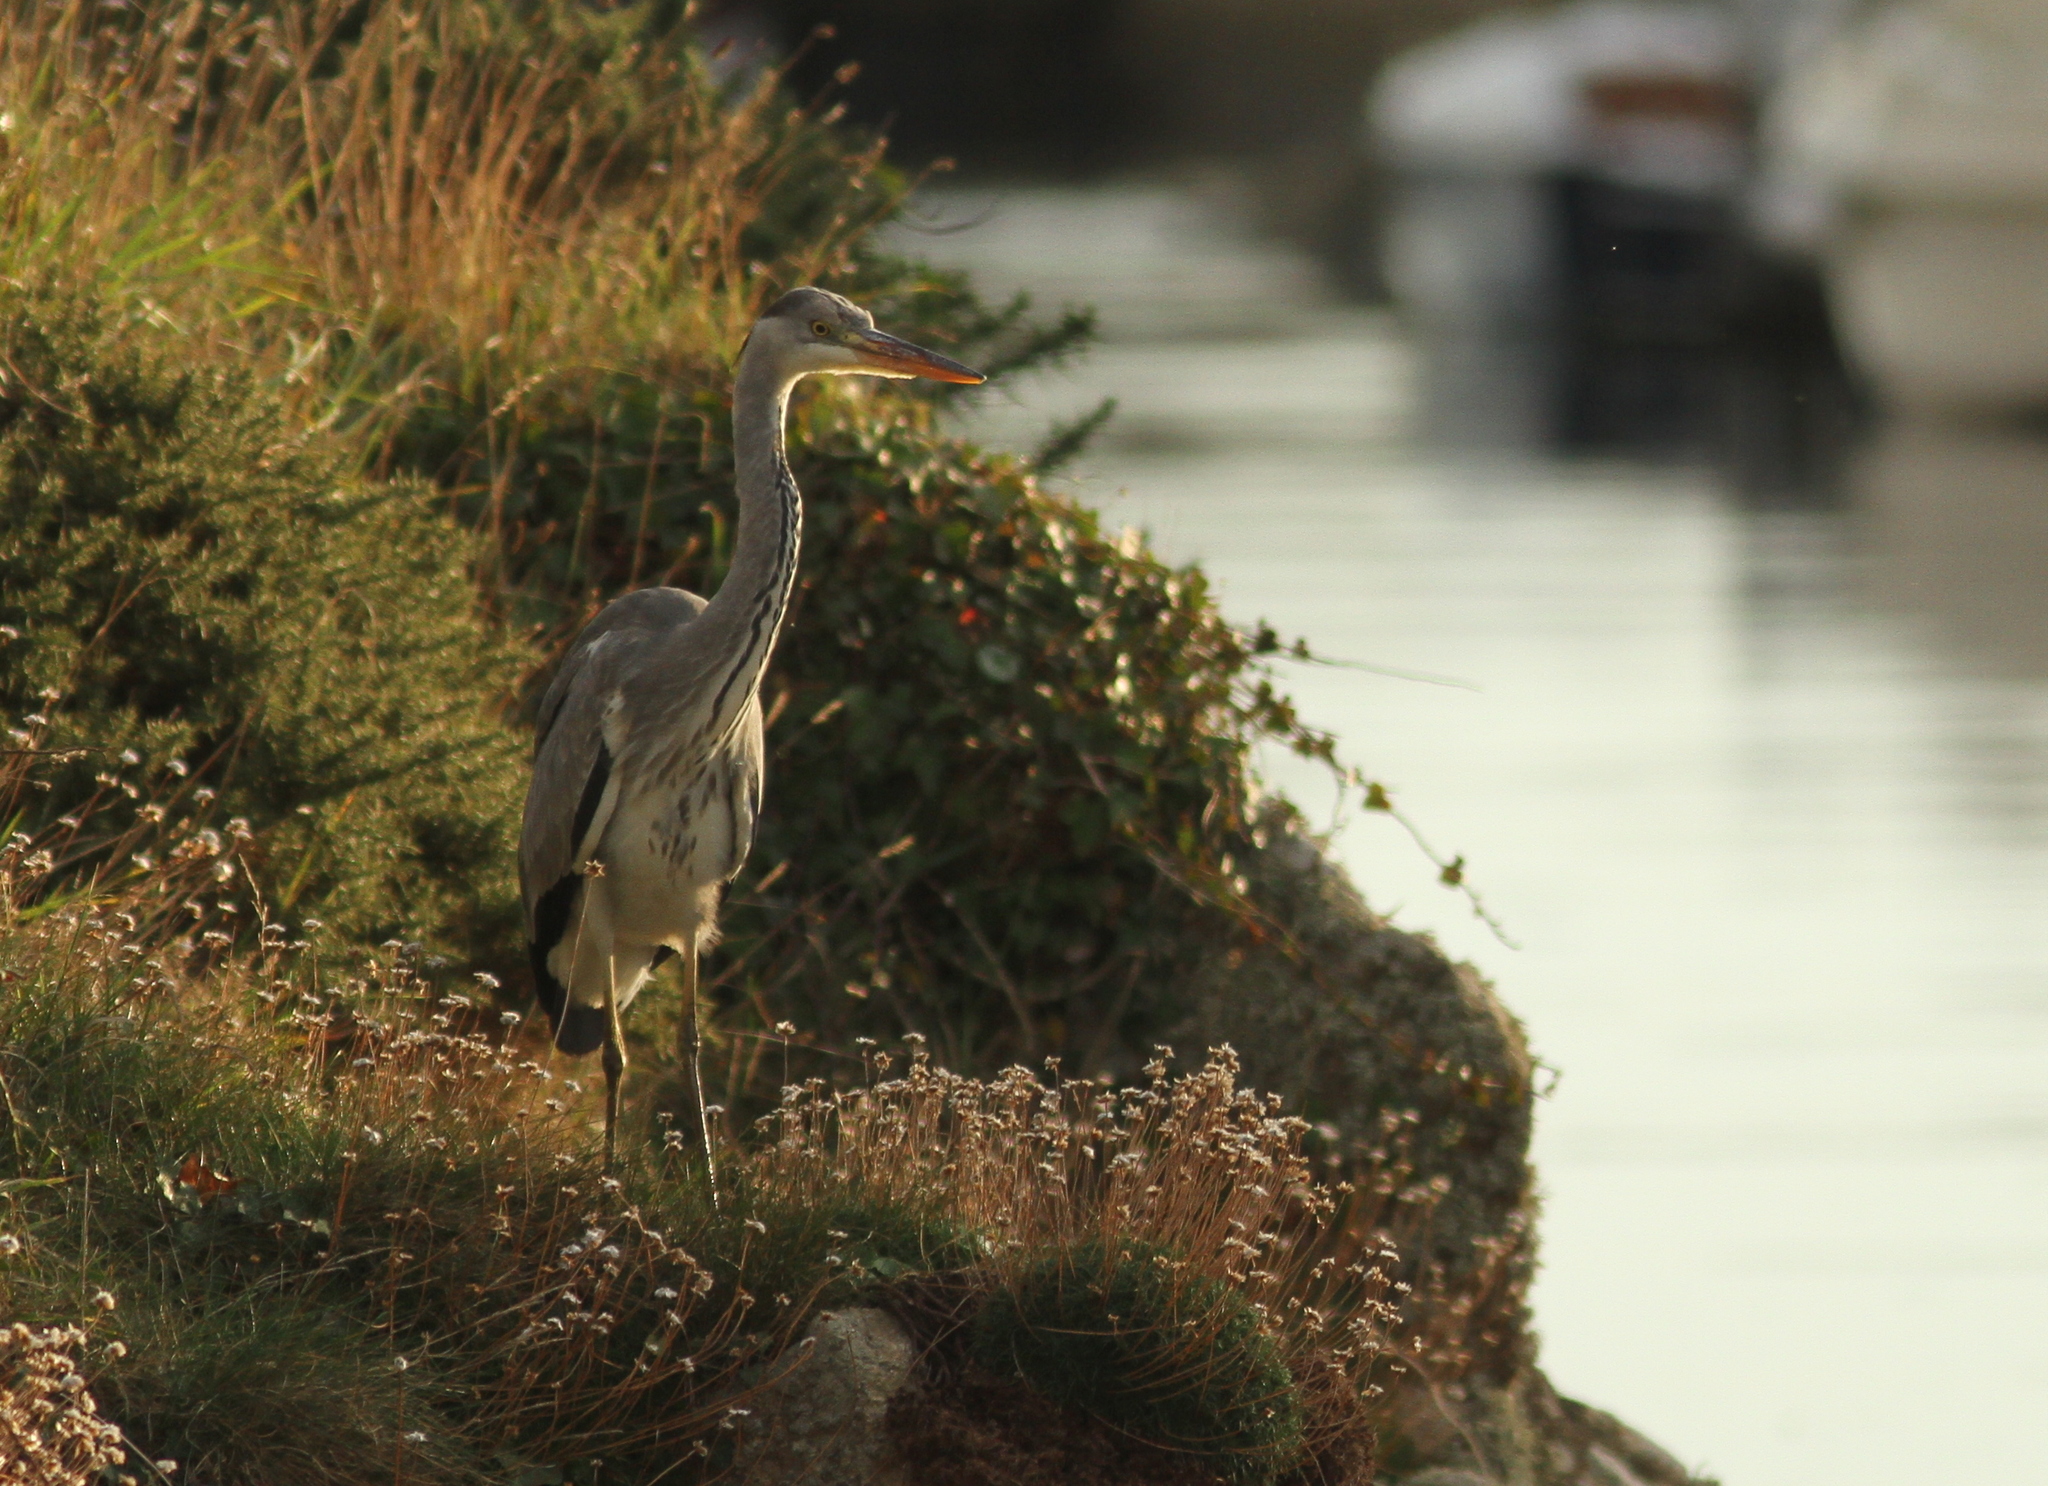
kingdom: Animalia
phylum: Chordata
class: Aves
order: Pelecaniformes
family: Ardeidae
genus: Ardea
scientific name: Ardea cinerea
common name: Grey heron
